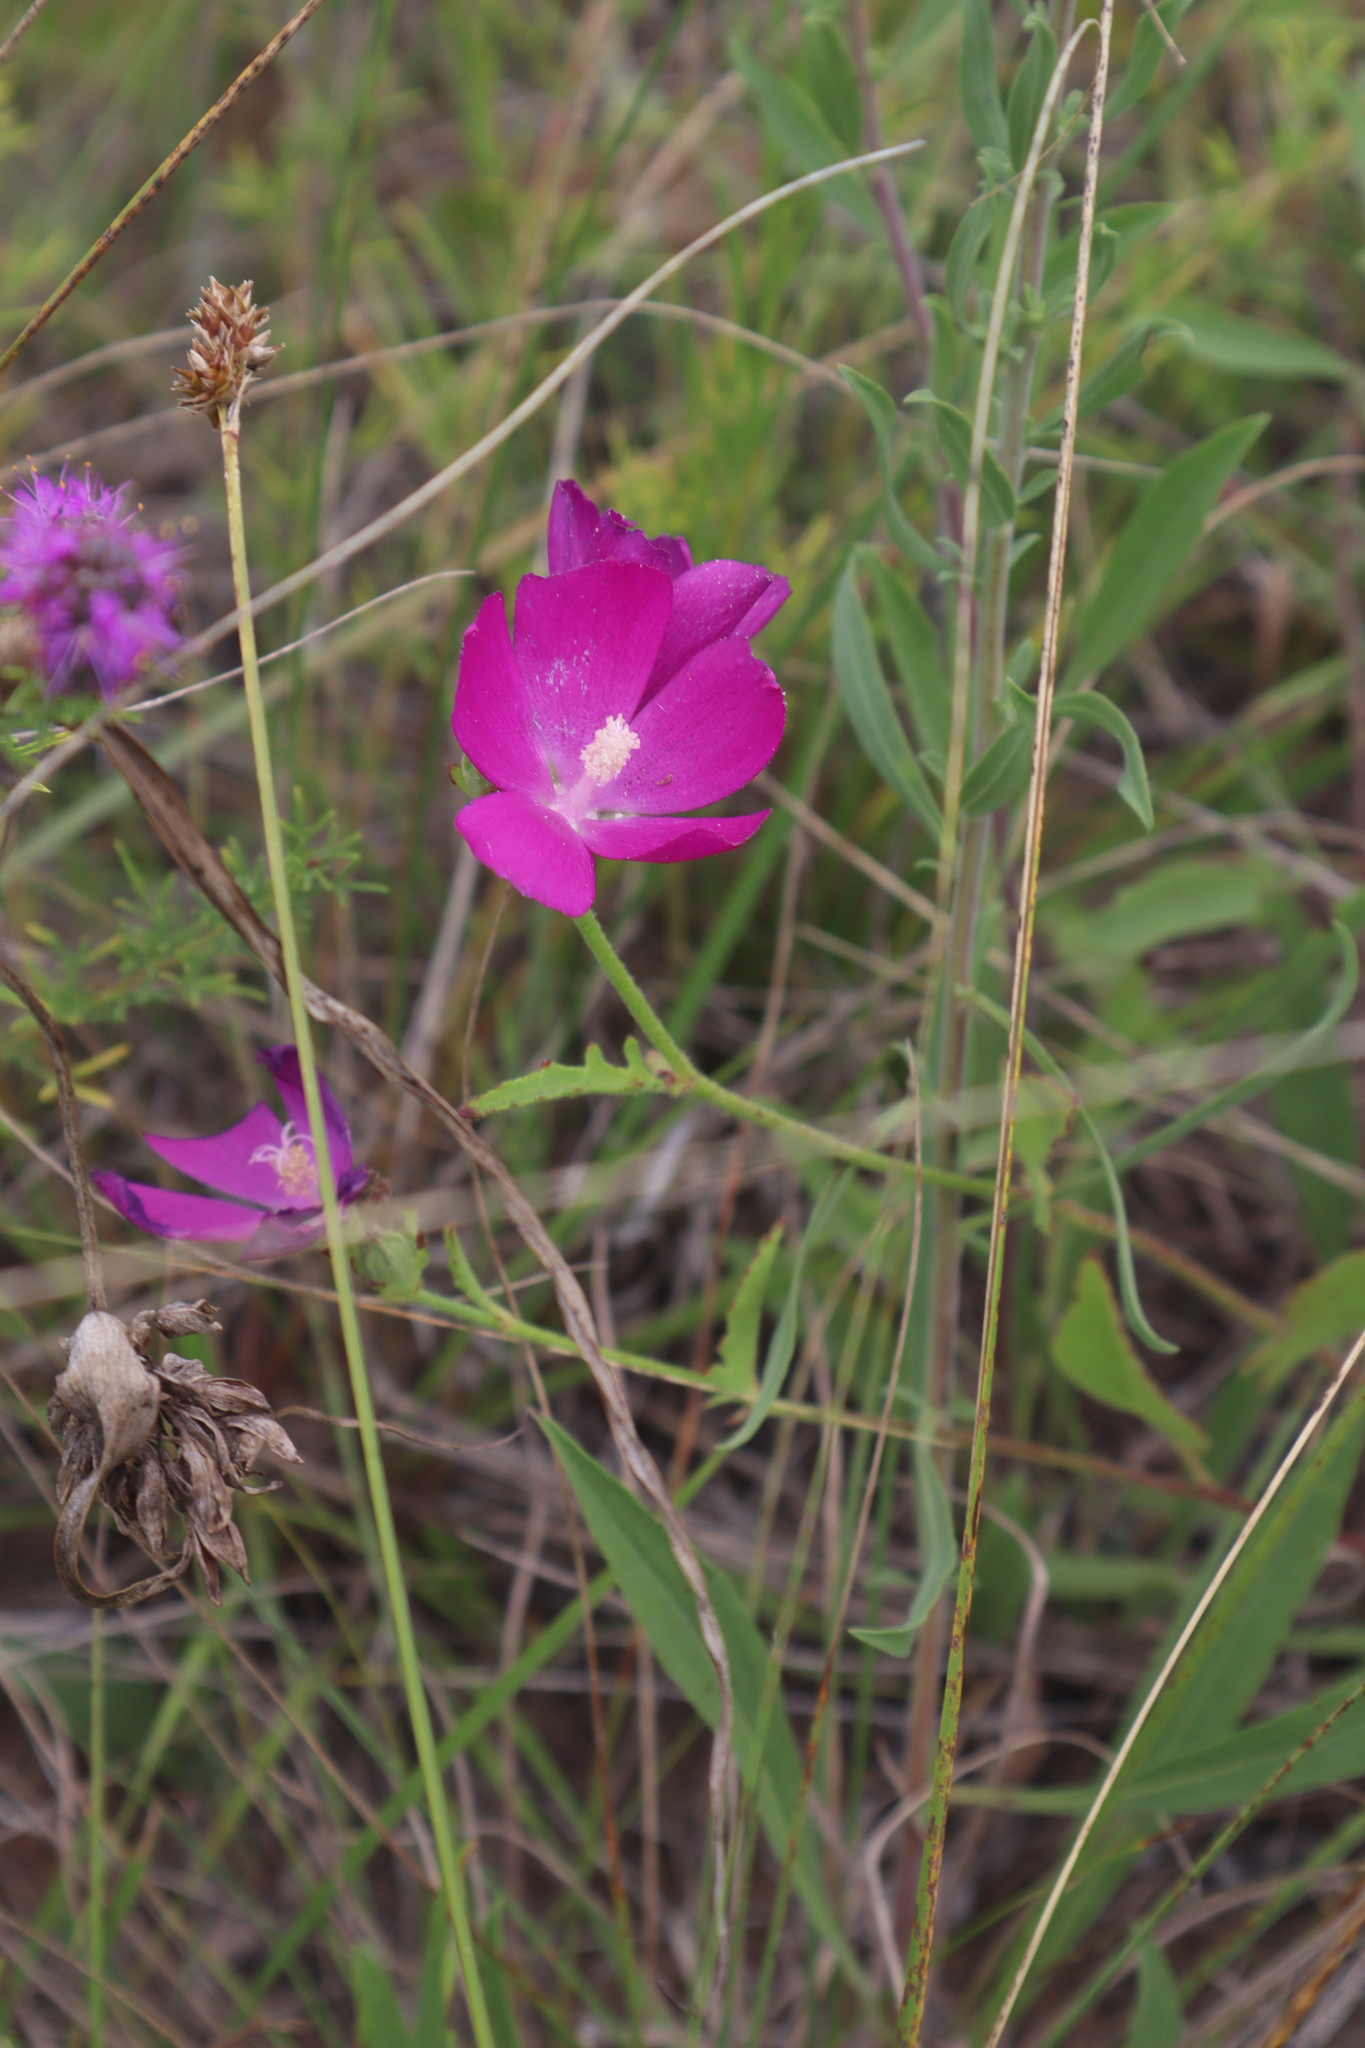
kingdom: Plantae
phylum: Tracheophyta
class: Magnoliopsida
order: Malvales
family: Malvaceae
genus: Callirhoe
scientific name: Callirhoe triangulata
